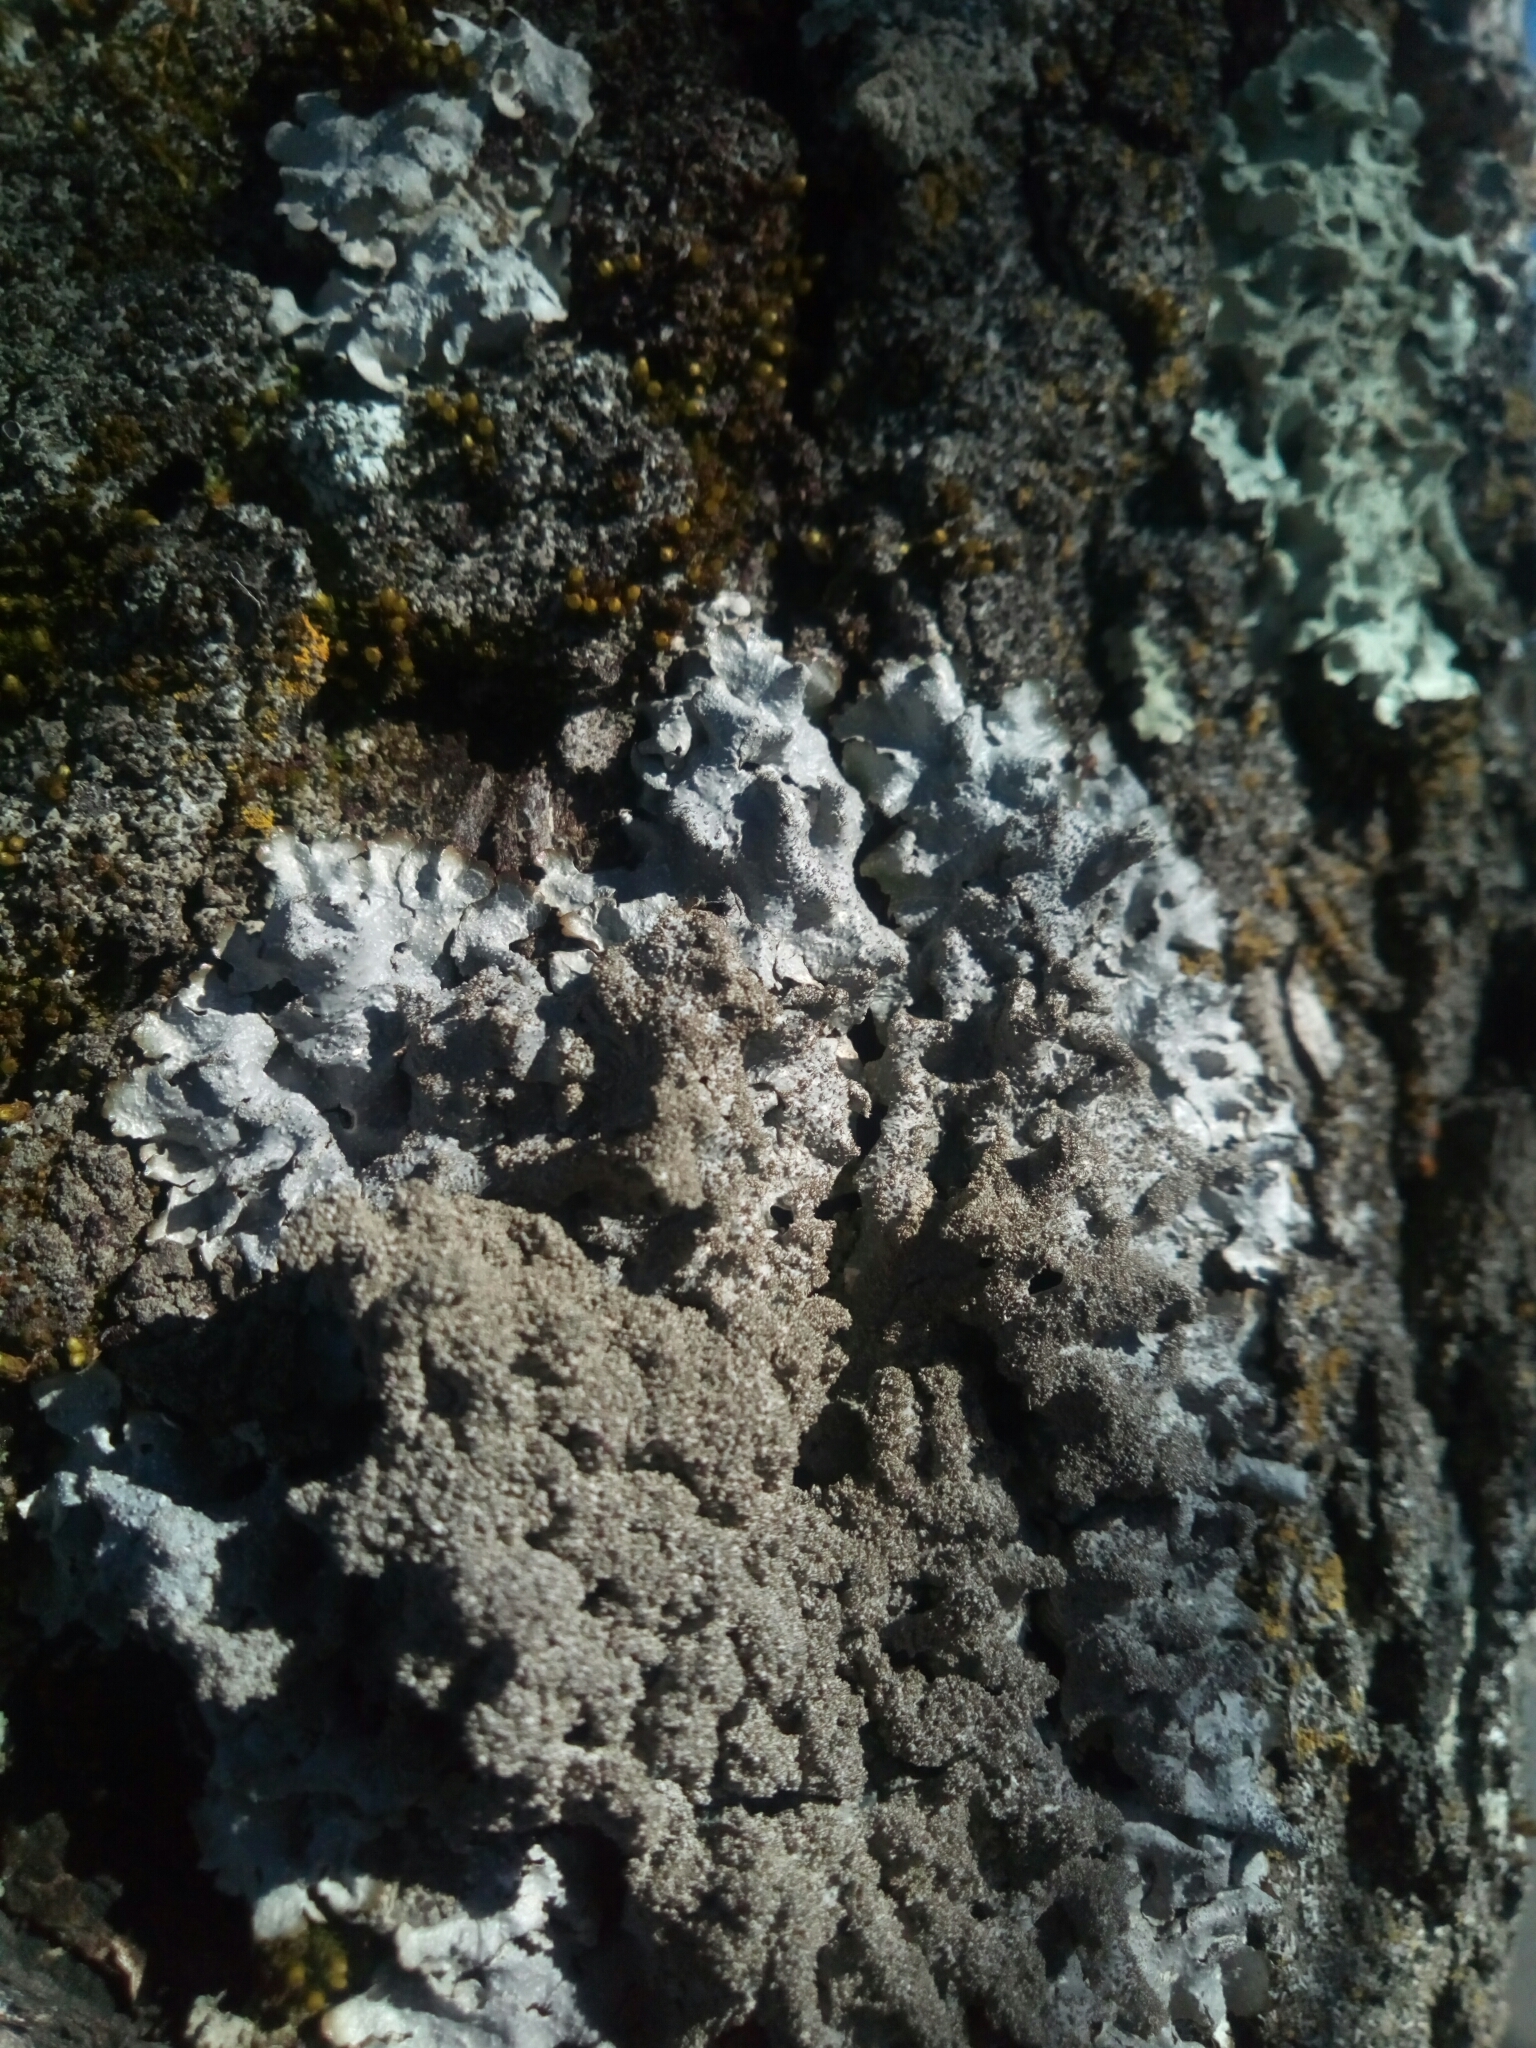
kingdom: Fungi
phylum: Ascomycota
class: Lecanoromycetes
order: Lecanorales
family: Parmeliaceae
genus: Punctelia
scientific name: Punctelia rudecta
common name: Rough speckled shield lichen
